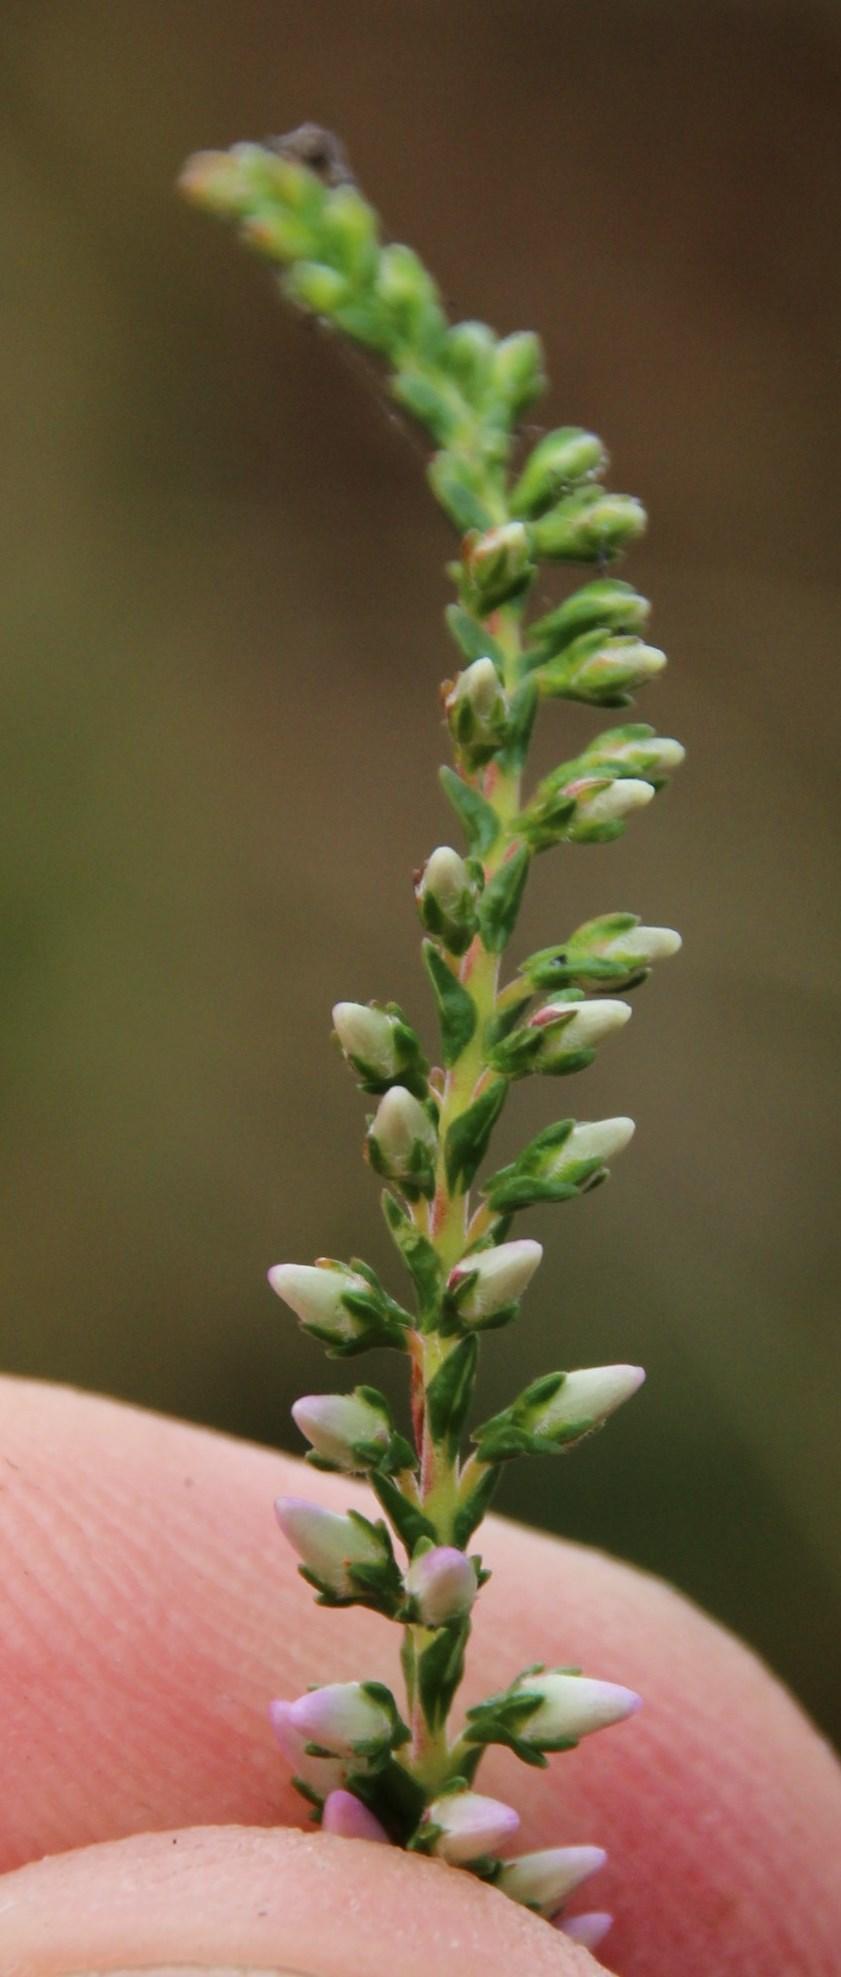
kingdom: Plantae
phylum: Tracheophyta
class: Magnoliopsida
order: Ericales
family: Ericaceae
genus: Calluna
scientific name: Calluna vulgaris
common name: Heather
